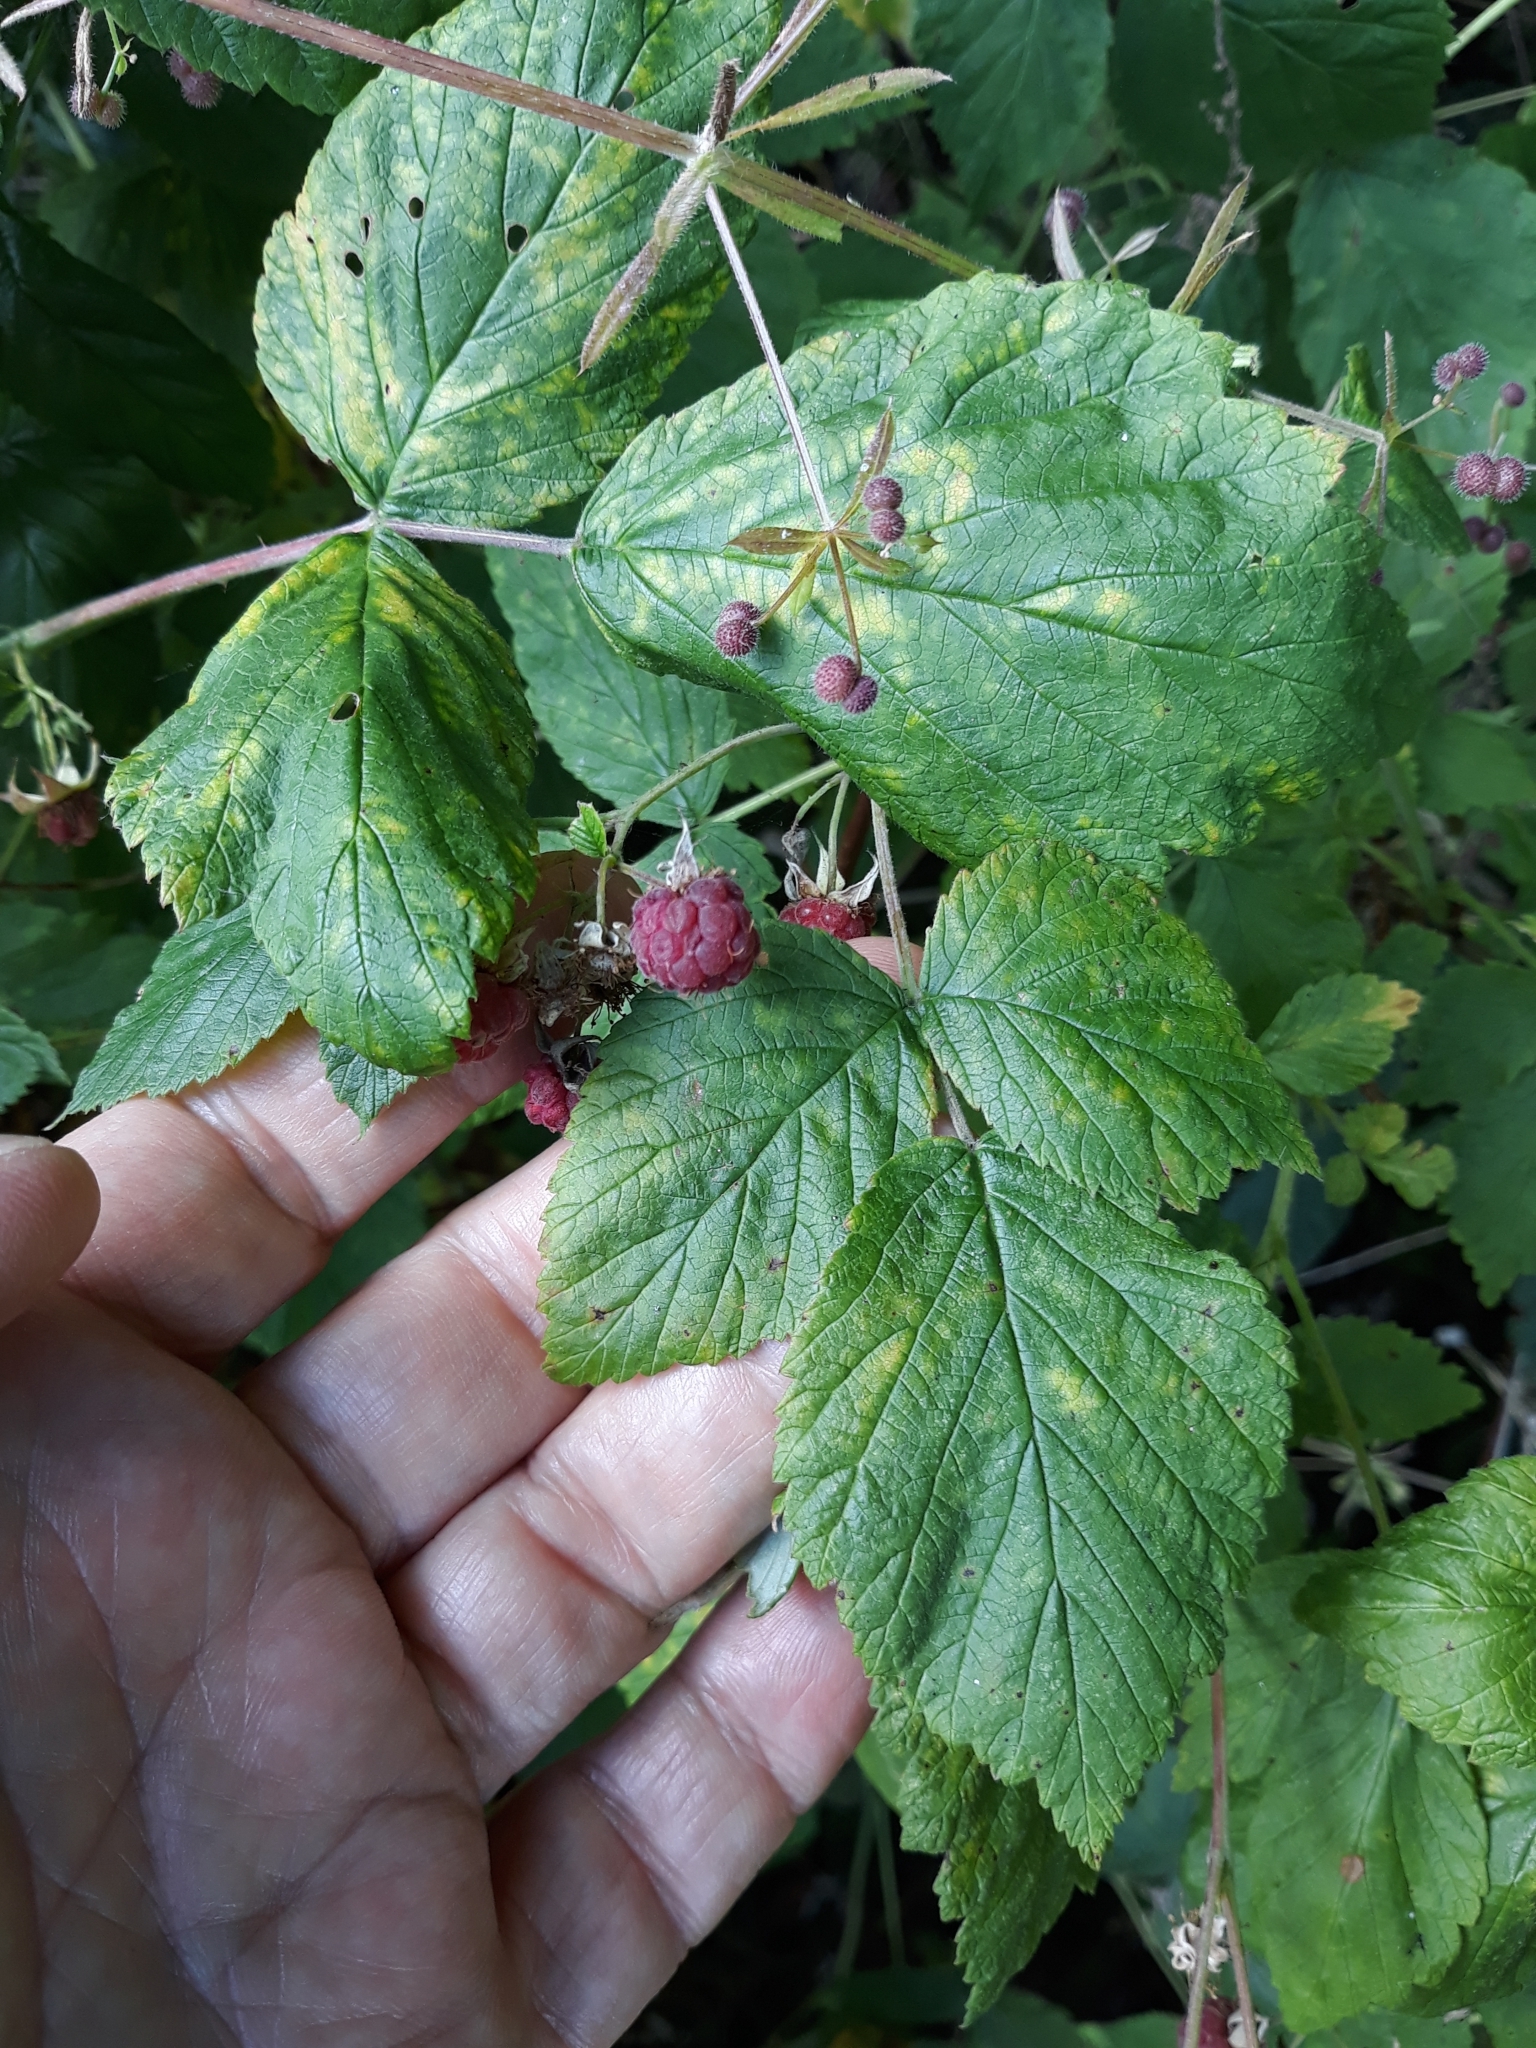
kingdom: Plantae
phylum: Tracheophyta
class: Magnoliopsida
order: Rosales
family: Rosaceae
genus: Rubus
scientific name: Rubus idaeus
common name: Raspberry
